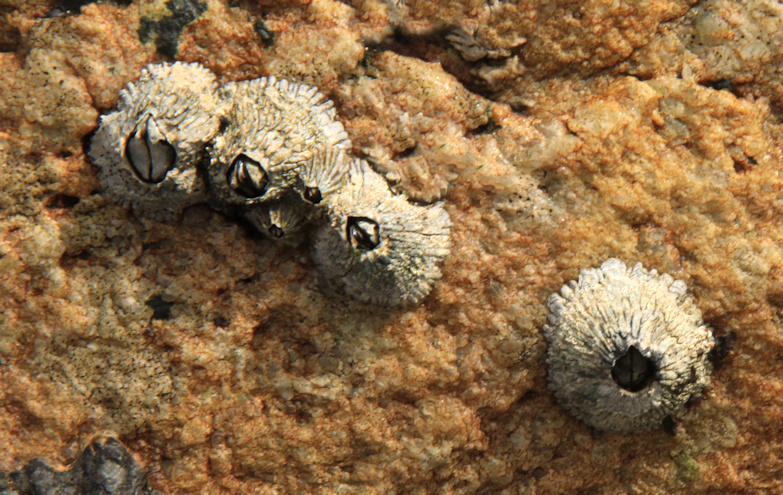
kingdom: Animalia
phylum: Arthropoda
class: Maxillopoda
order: Sessilia
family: Tetraclitidae
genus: Tetraclita
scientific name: Tetraclita serrata
